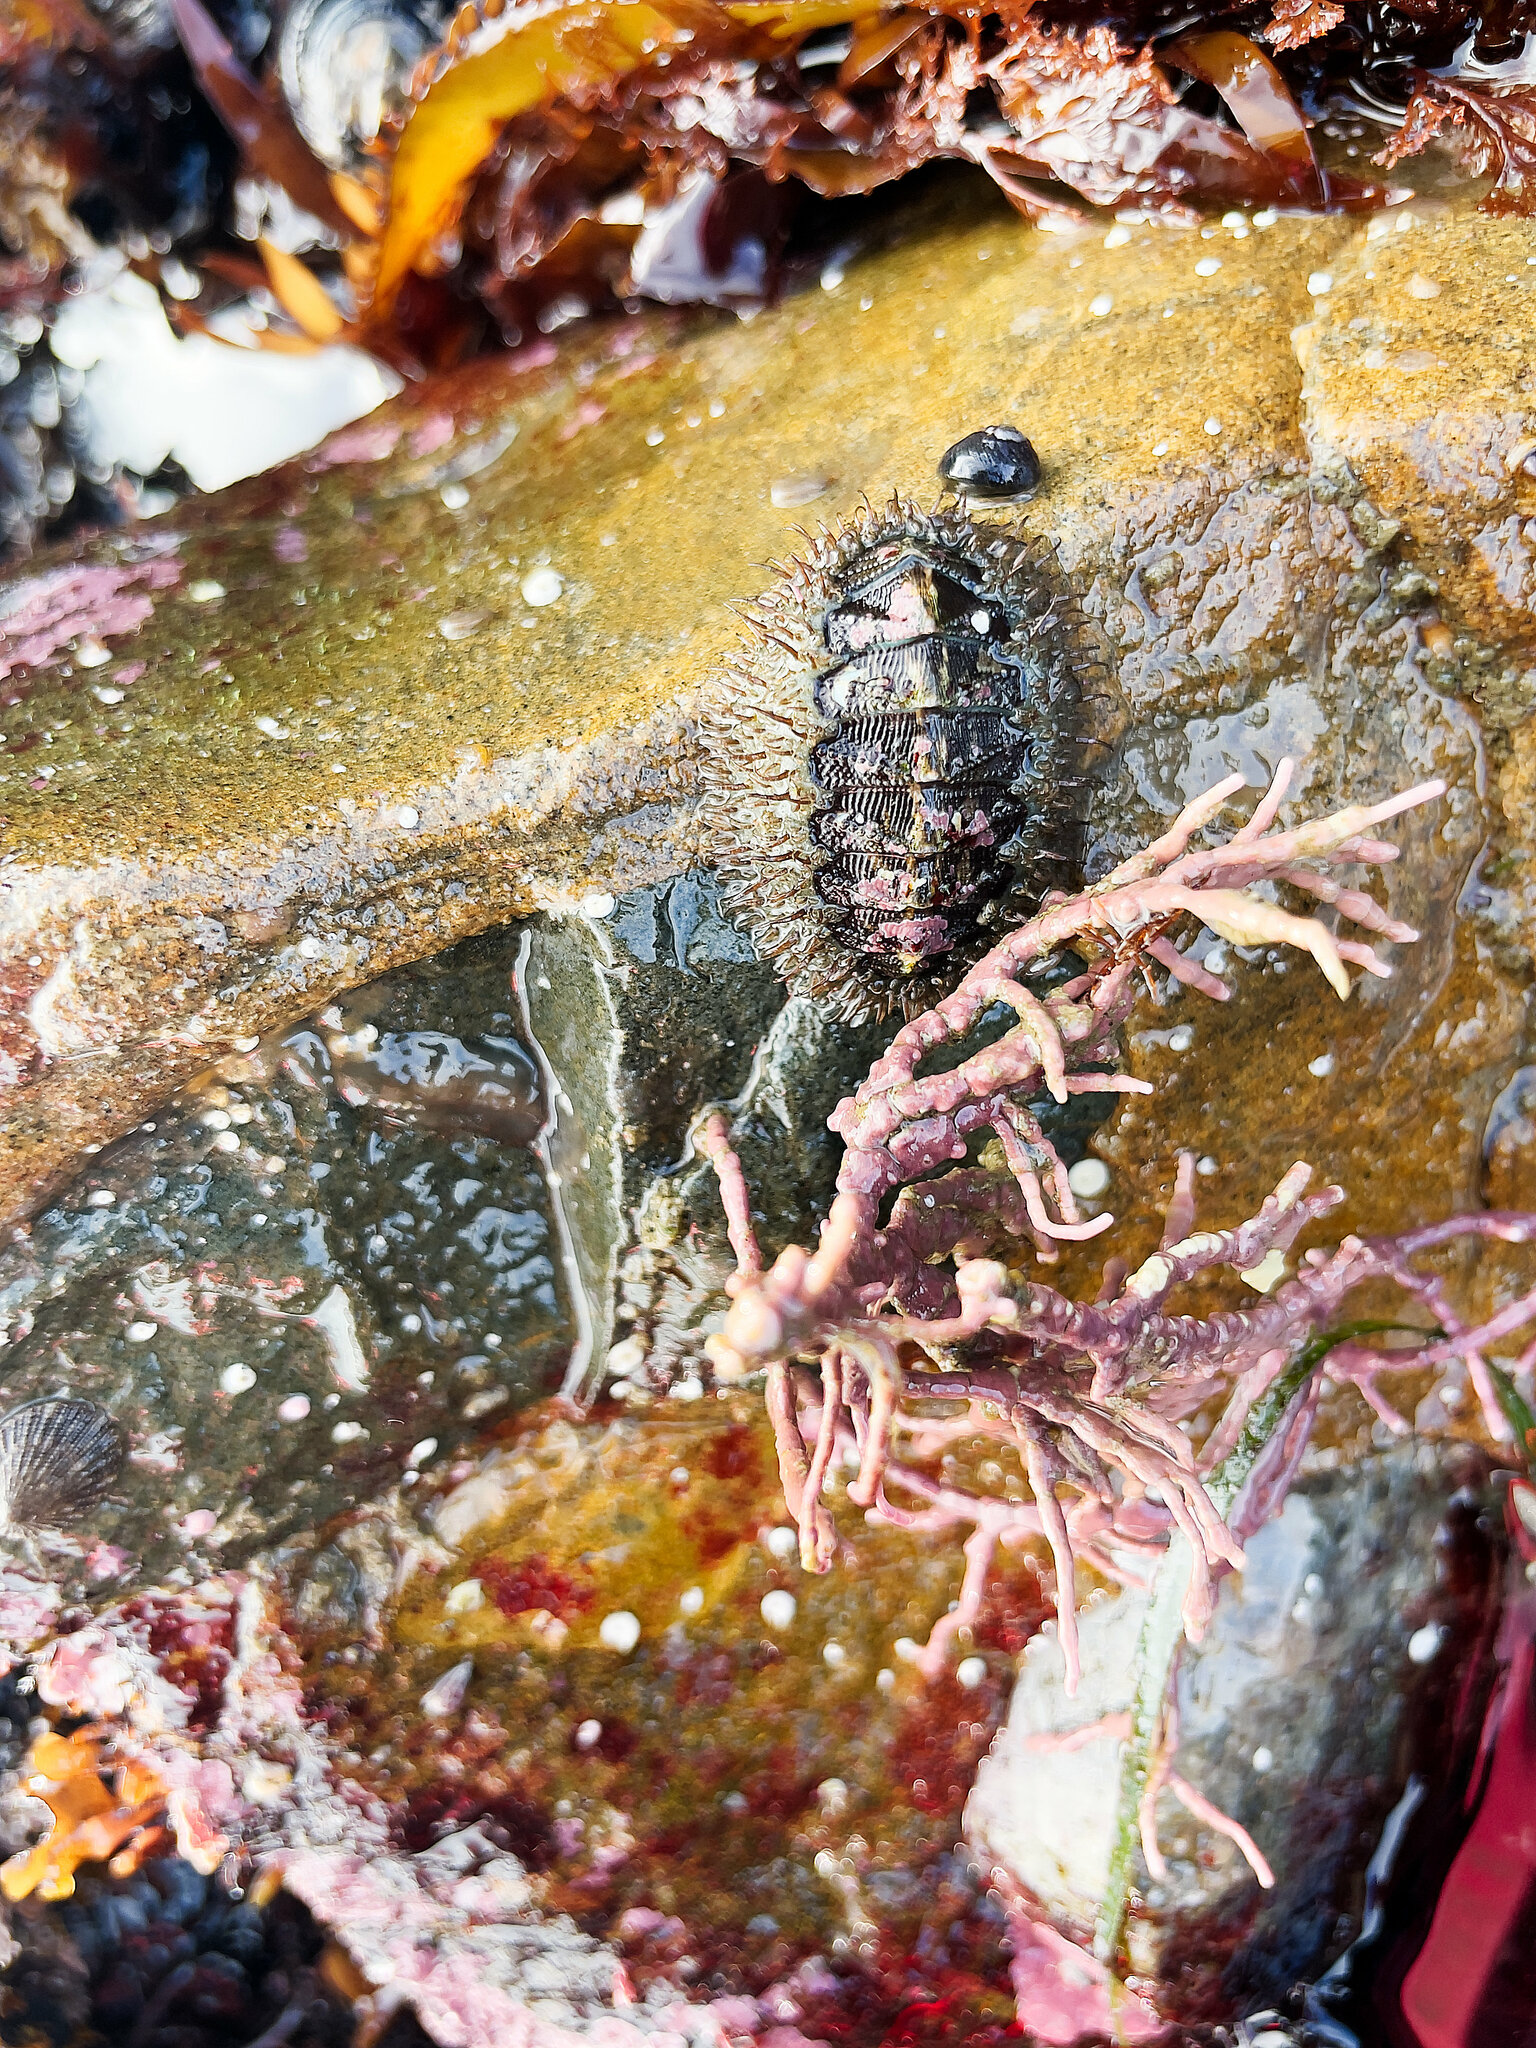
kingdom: Animalia
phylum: Mollusca
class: Polyplacophora
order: Chitonida
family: Mopaliidae
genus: Mopalia
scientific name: Mopalia muscosa
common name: Mossy chiton
